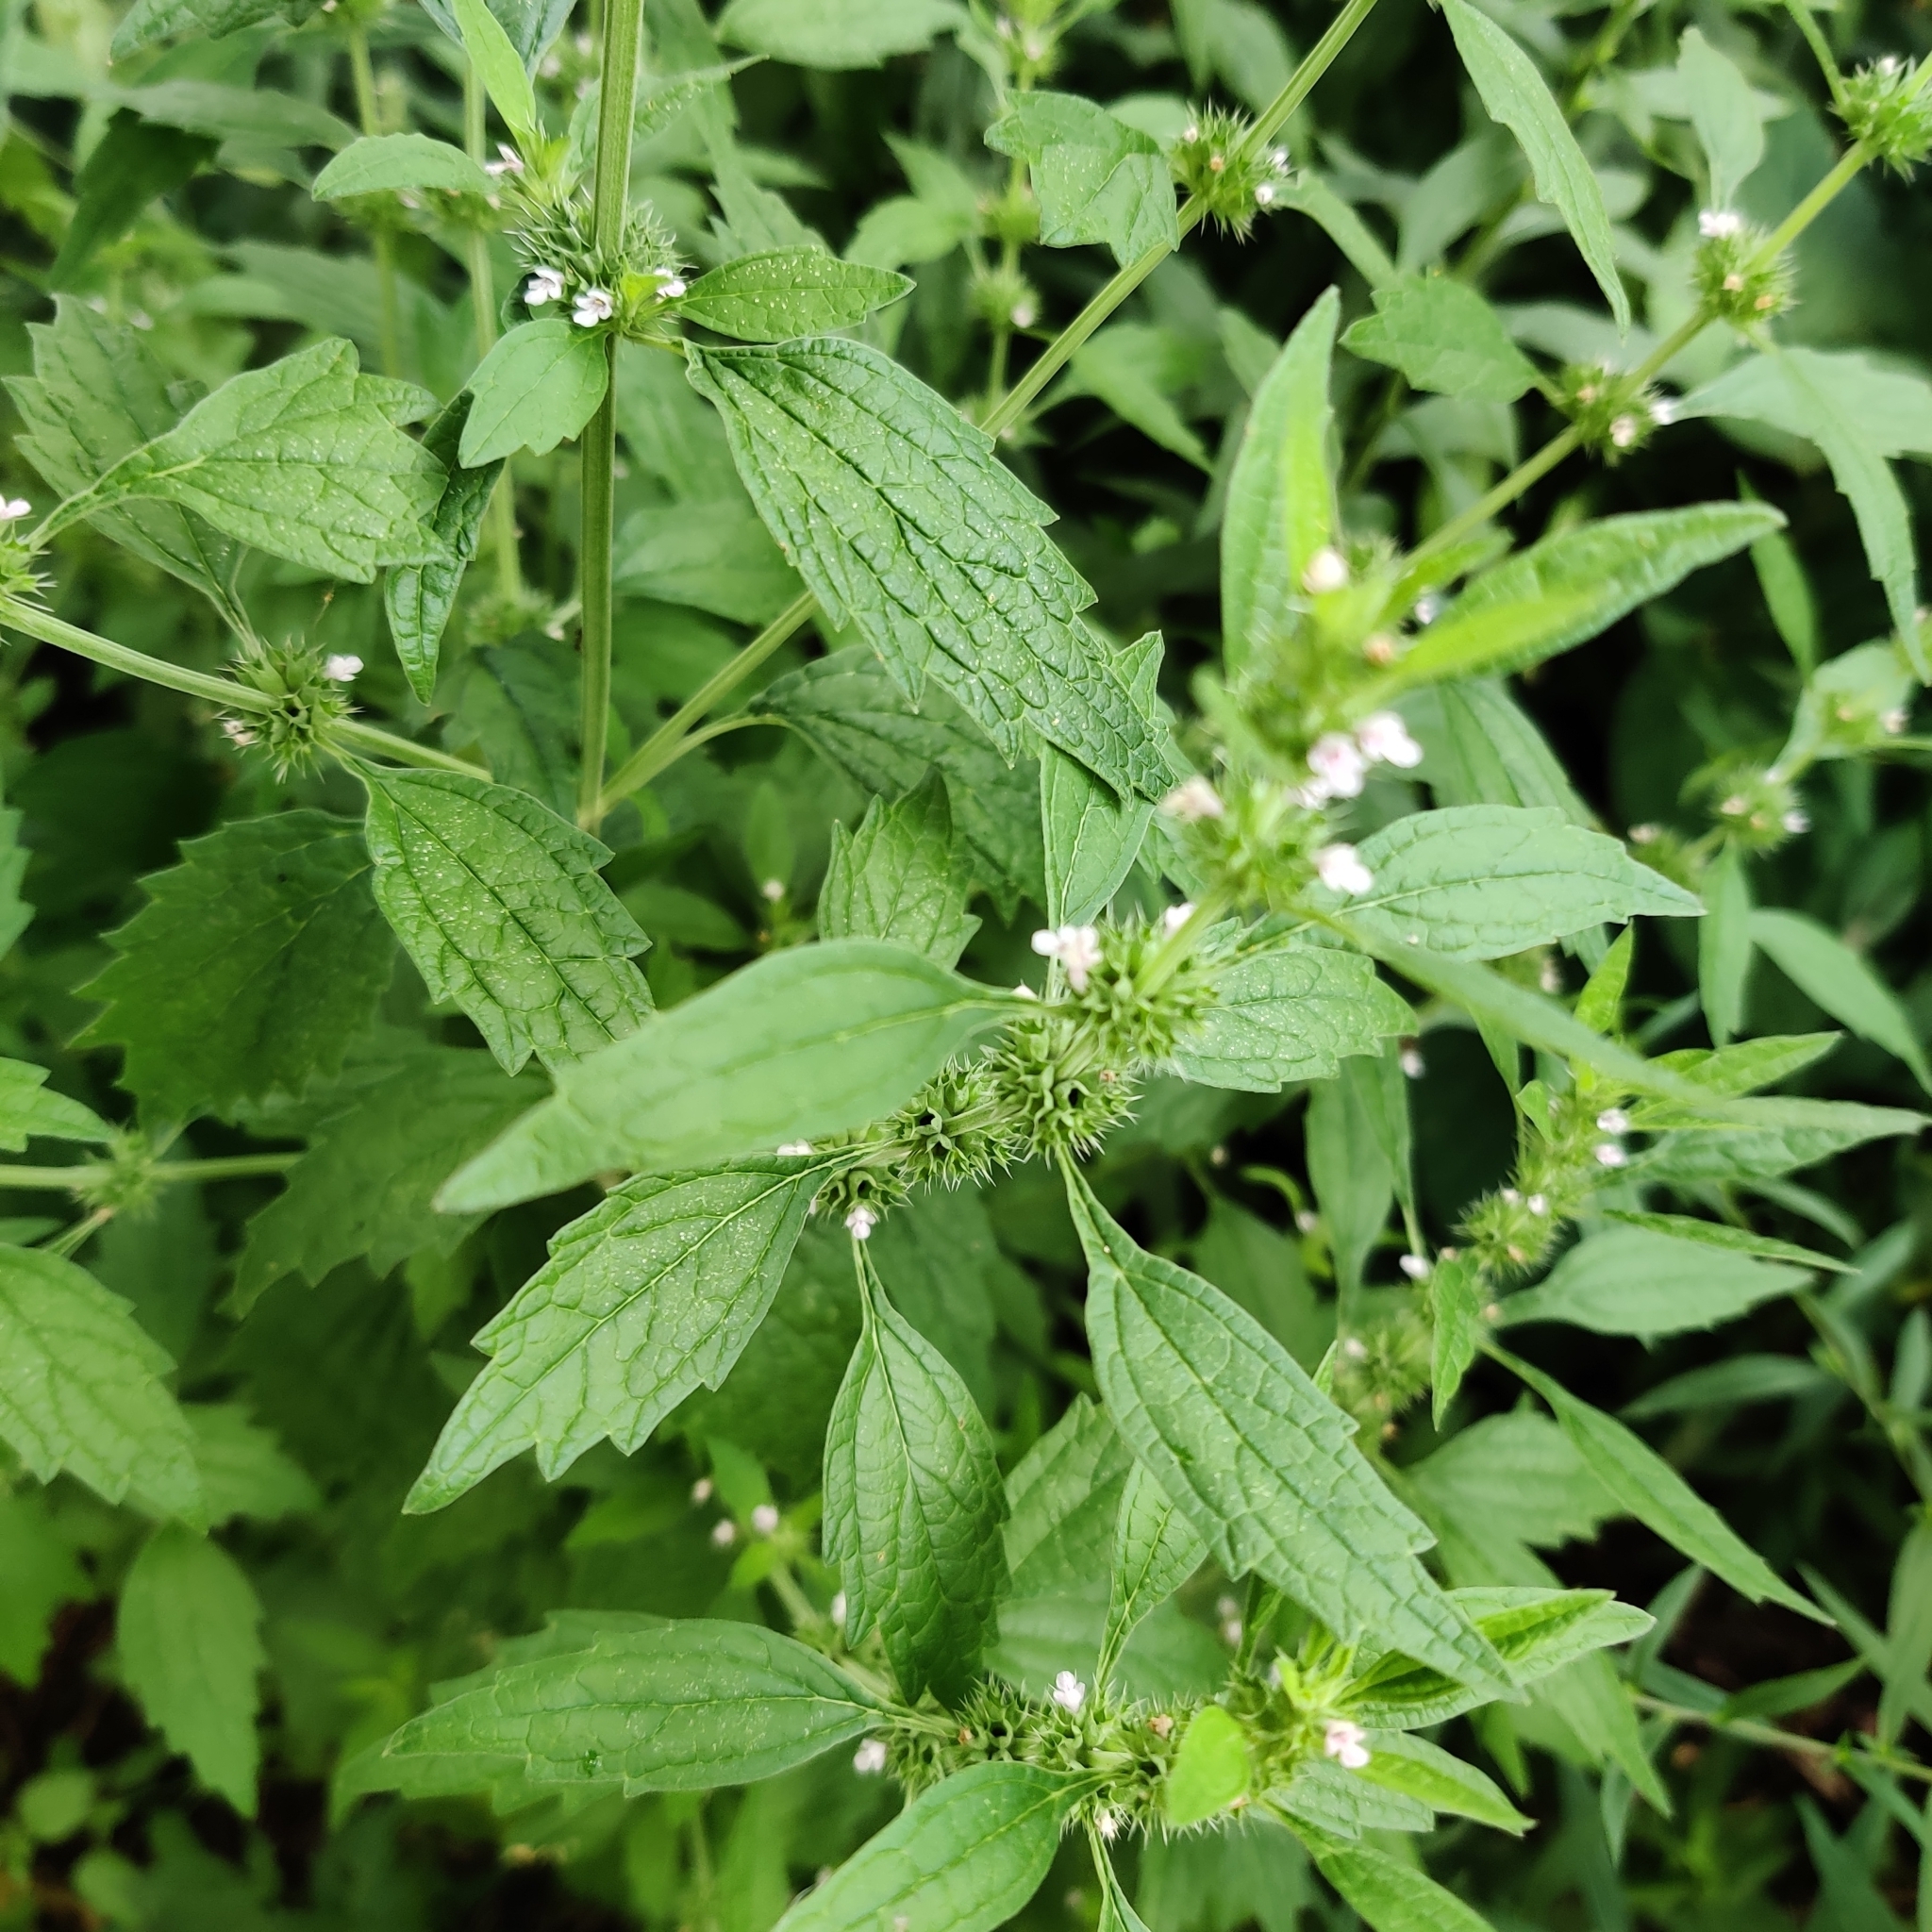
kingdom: Plantae
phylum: Tracheophyta
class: Magnoliopsida
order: Lamiales
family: Lamiaceae
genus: Chaiturus
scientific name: Chaiturus marrubiastrum
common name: Lion's tail
